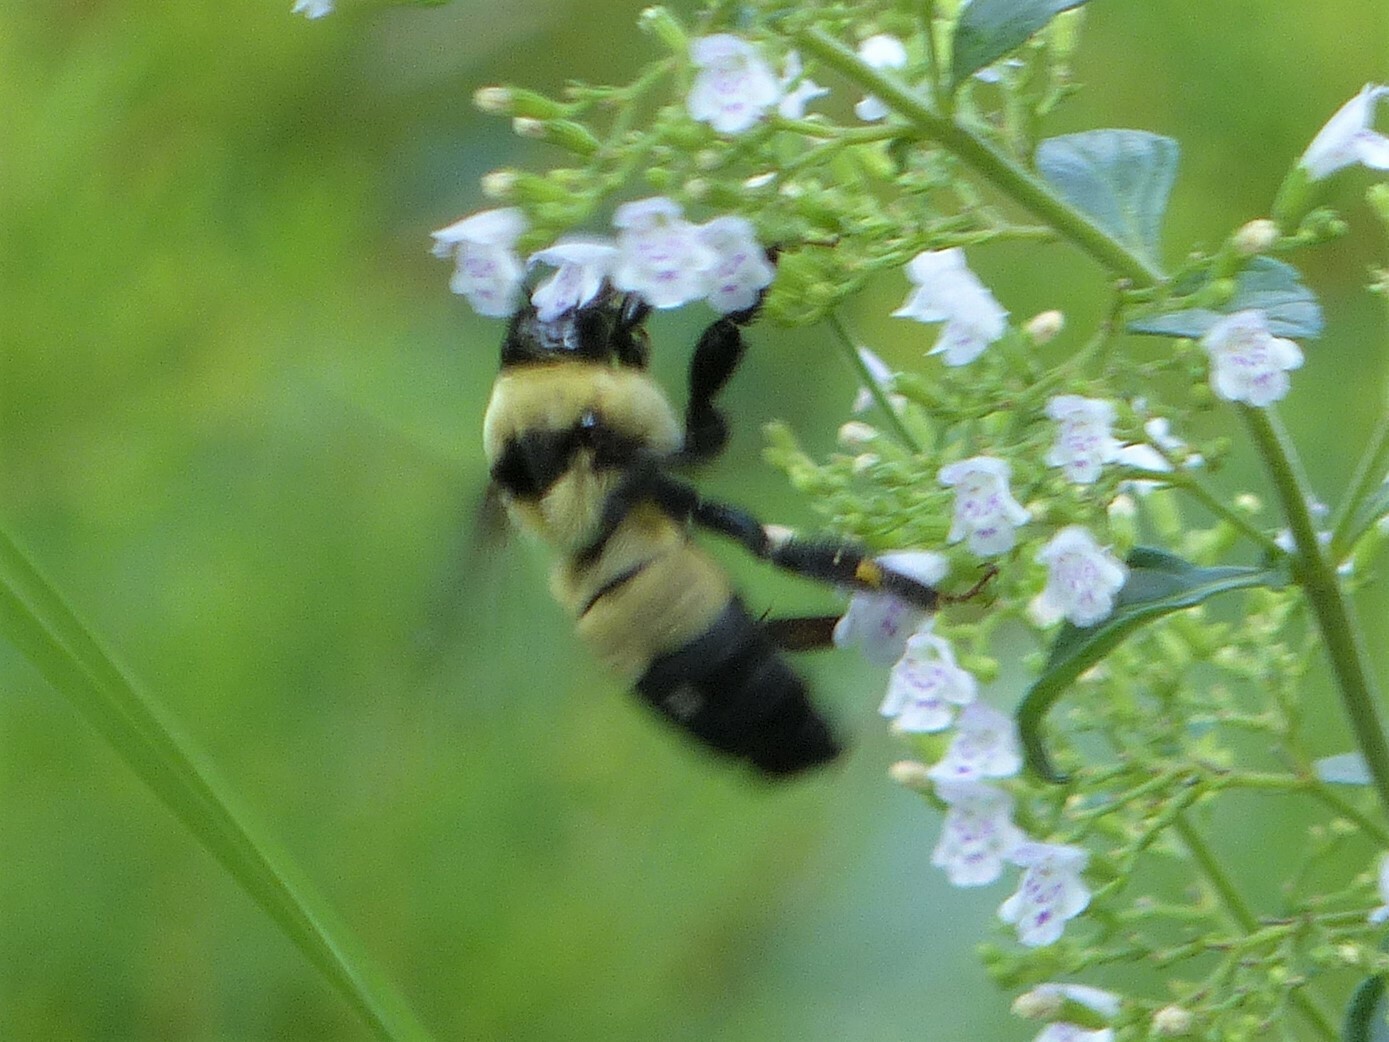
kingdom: Animalia
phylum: Arthropoda
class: Insecta
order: Hymenoptera
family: Apidae
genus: Bombus
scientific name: Bombus fraternus
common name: Southern plains bumble bee
